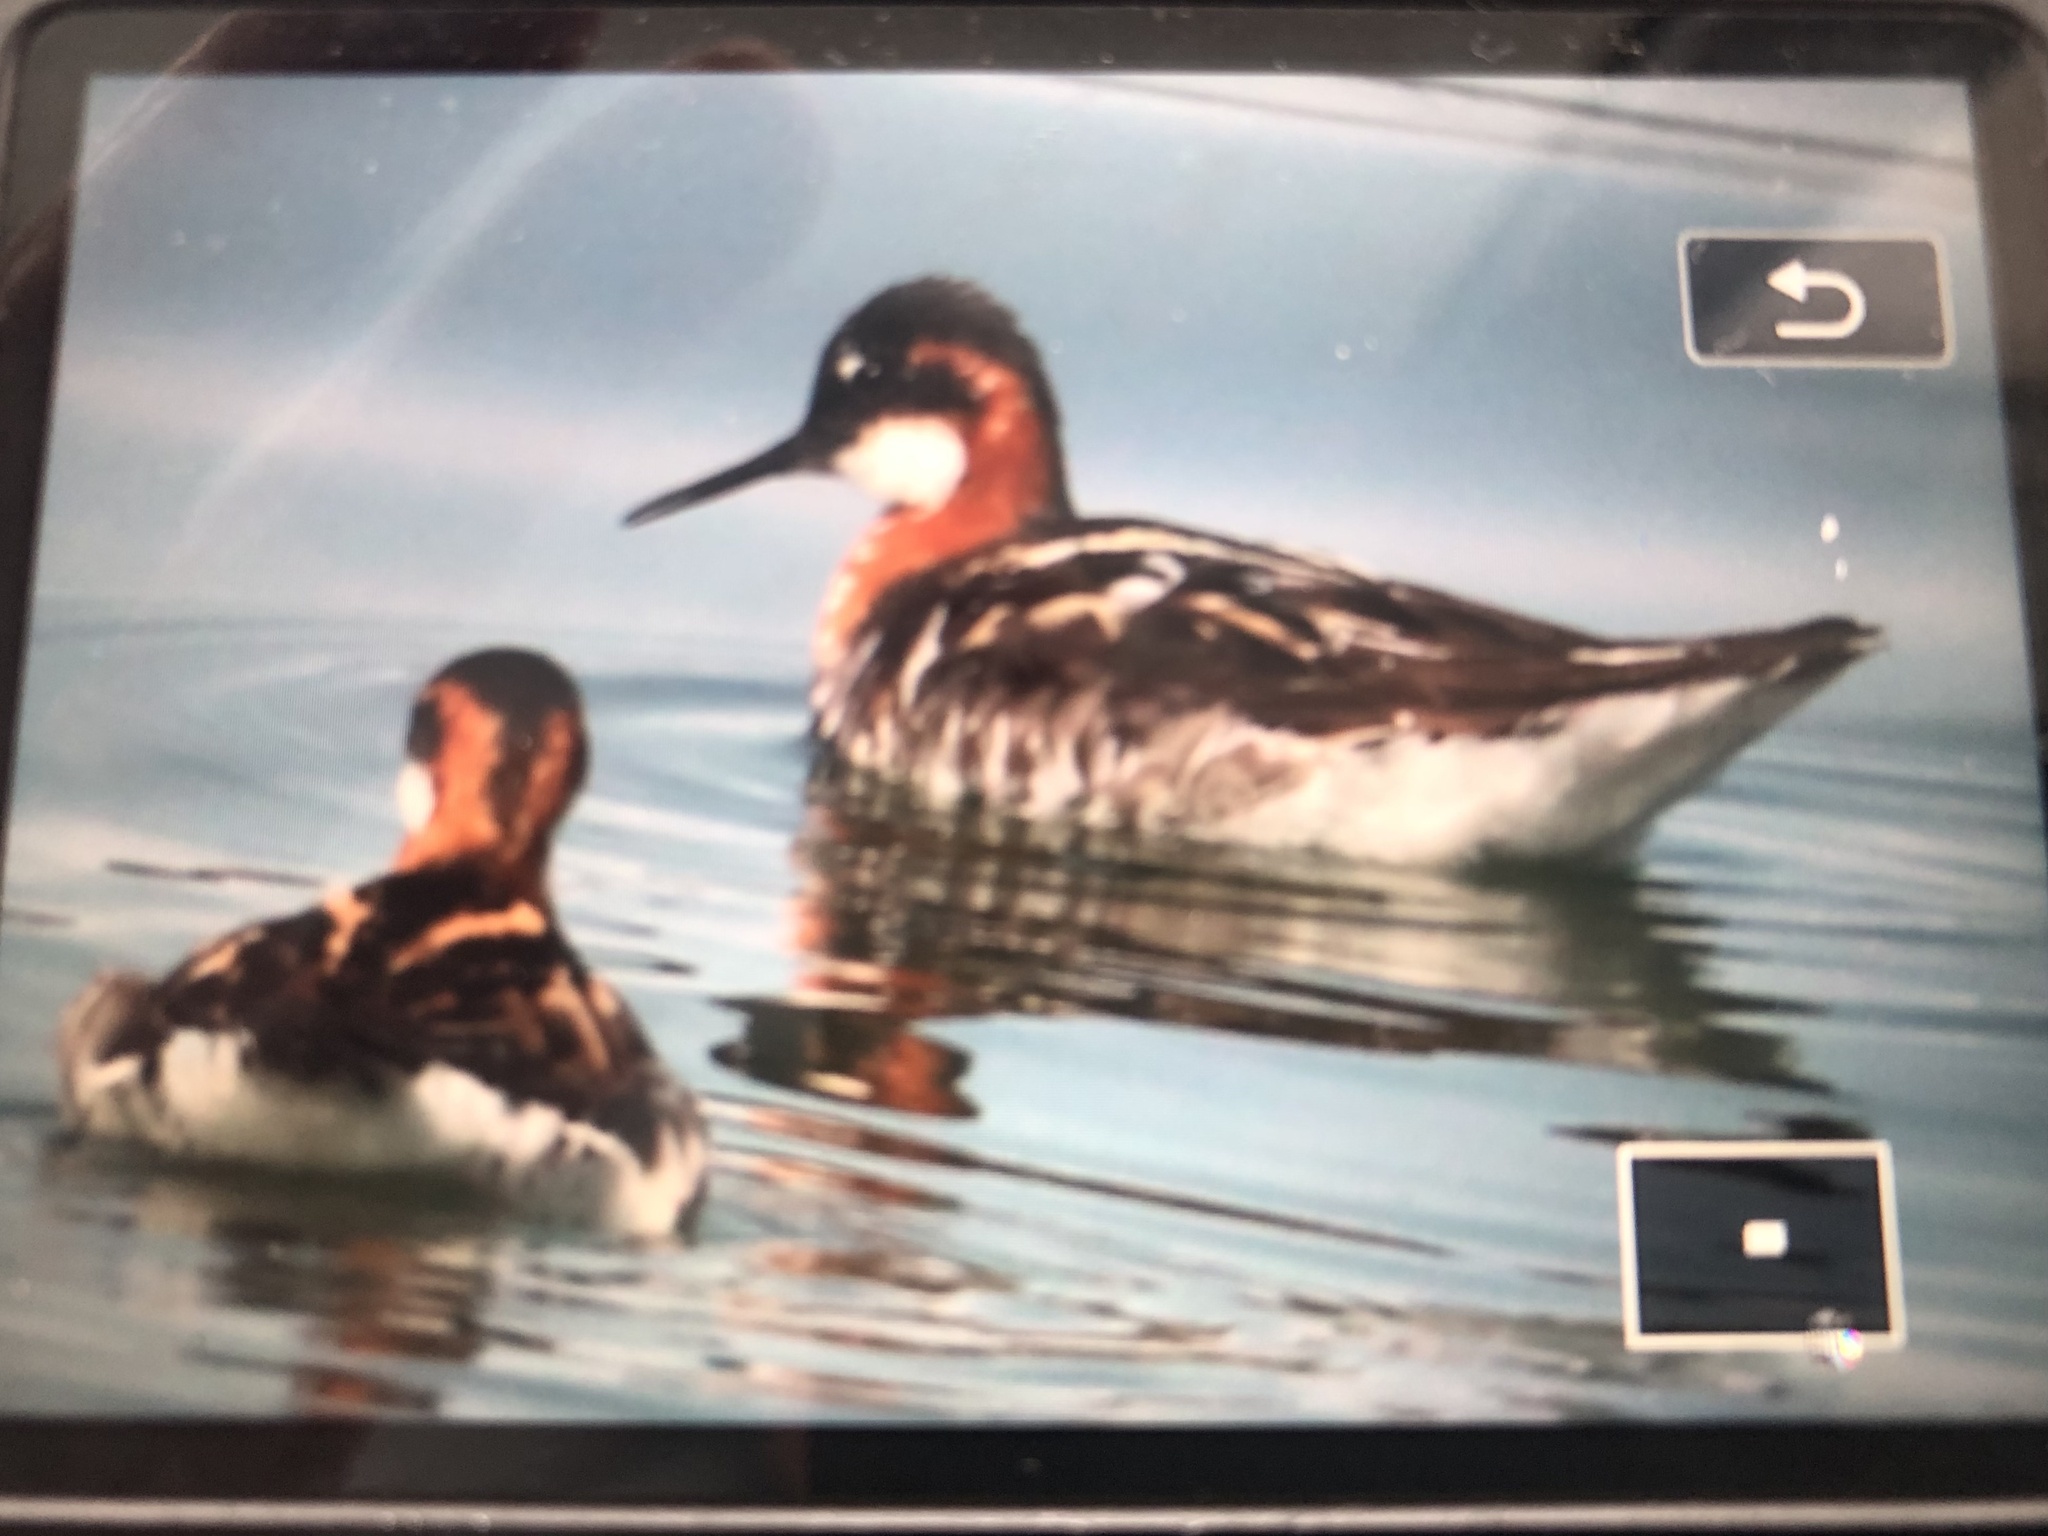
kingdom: Animalia
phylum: Chordata
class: Aves
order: Charadriiformes
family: Scolopacidae
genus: Phalaropus
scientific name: Phalaropus lobatus
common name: Red-necked phalarope
